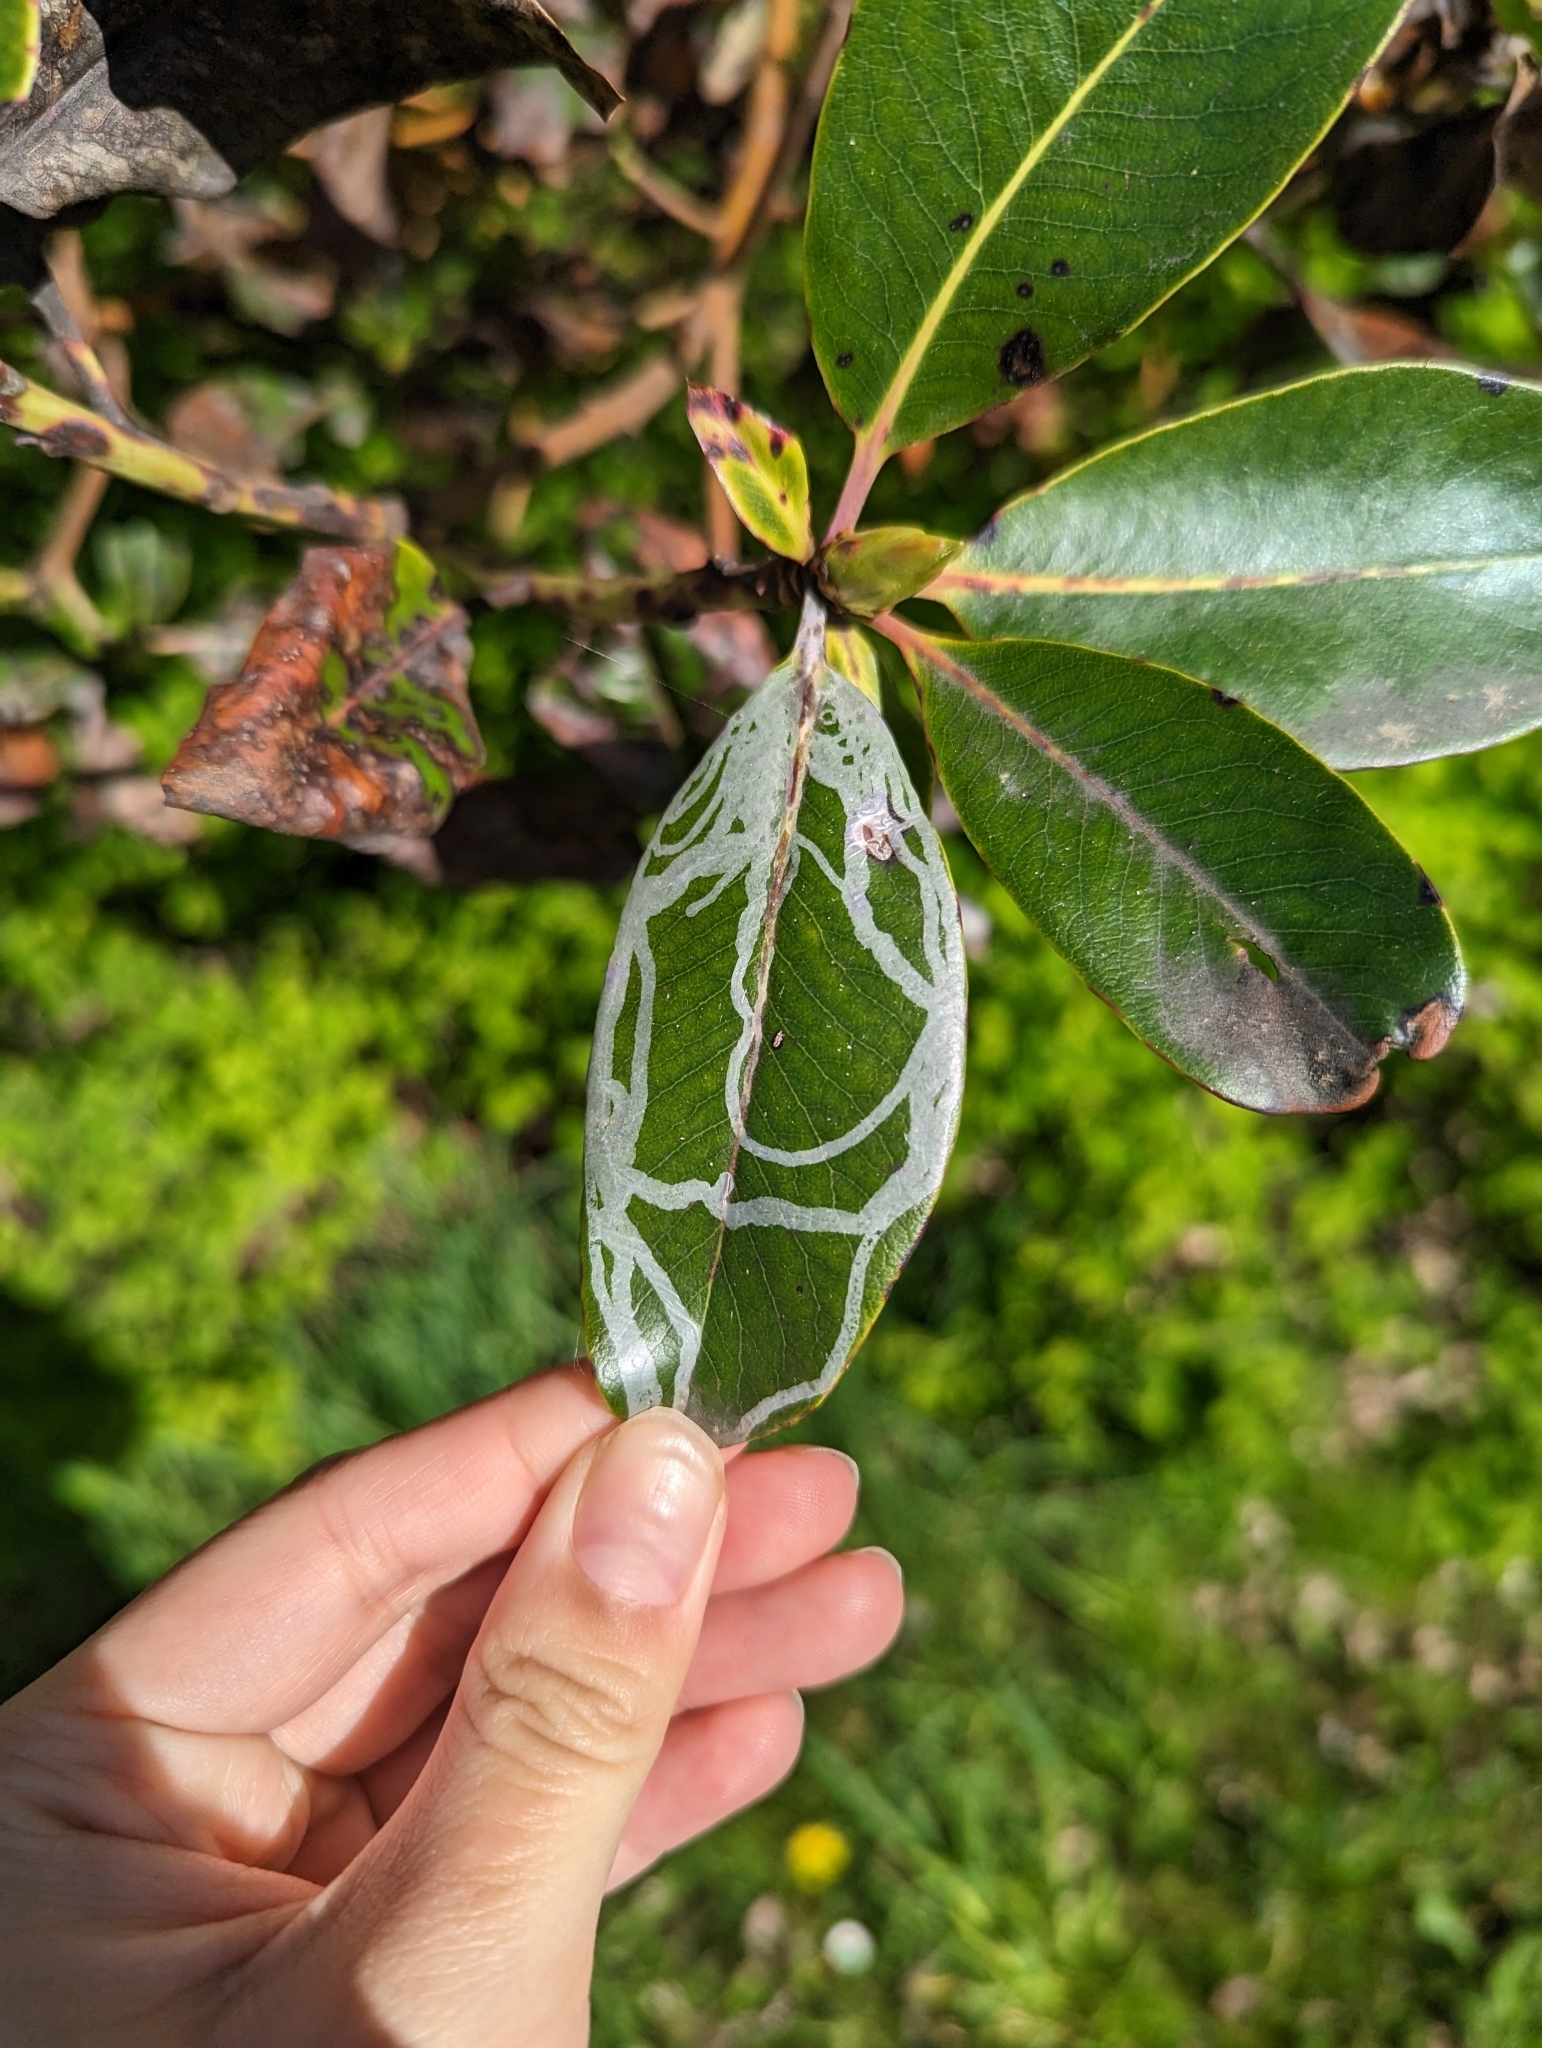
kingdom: Animalia
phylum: Arthropoda
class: Insecta
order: Lepidoptera
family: Gracillariidae
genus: Marmara
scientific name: Marmara arbutiella
